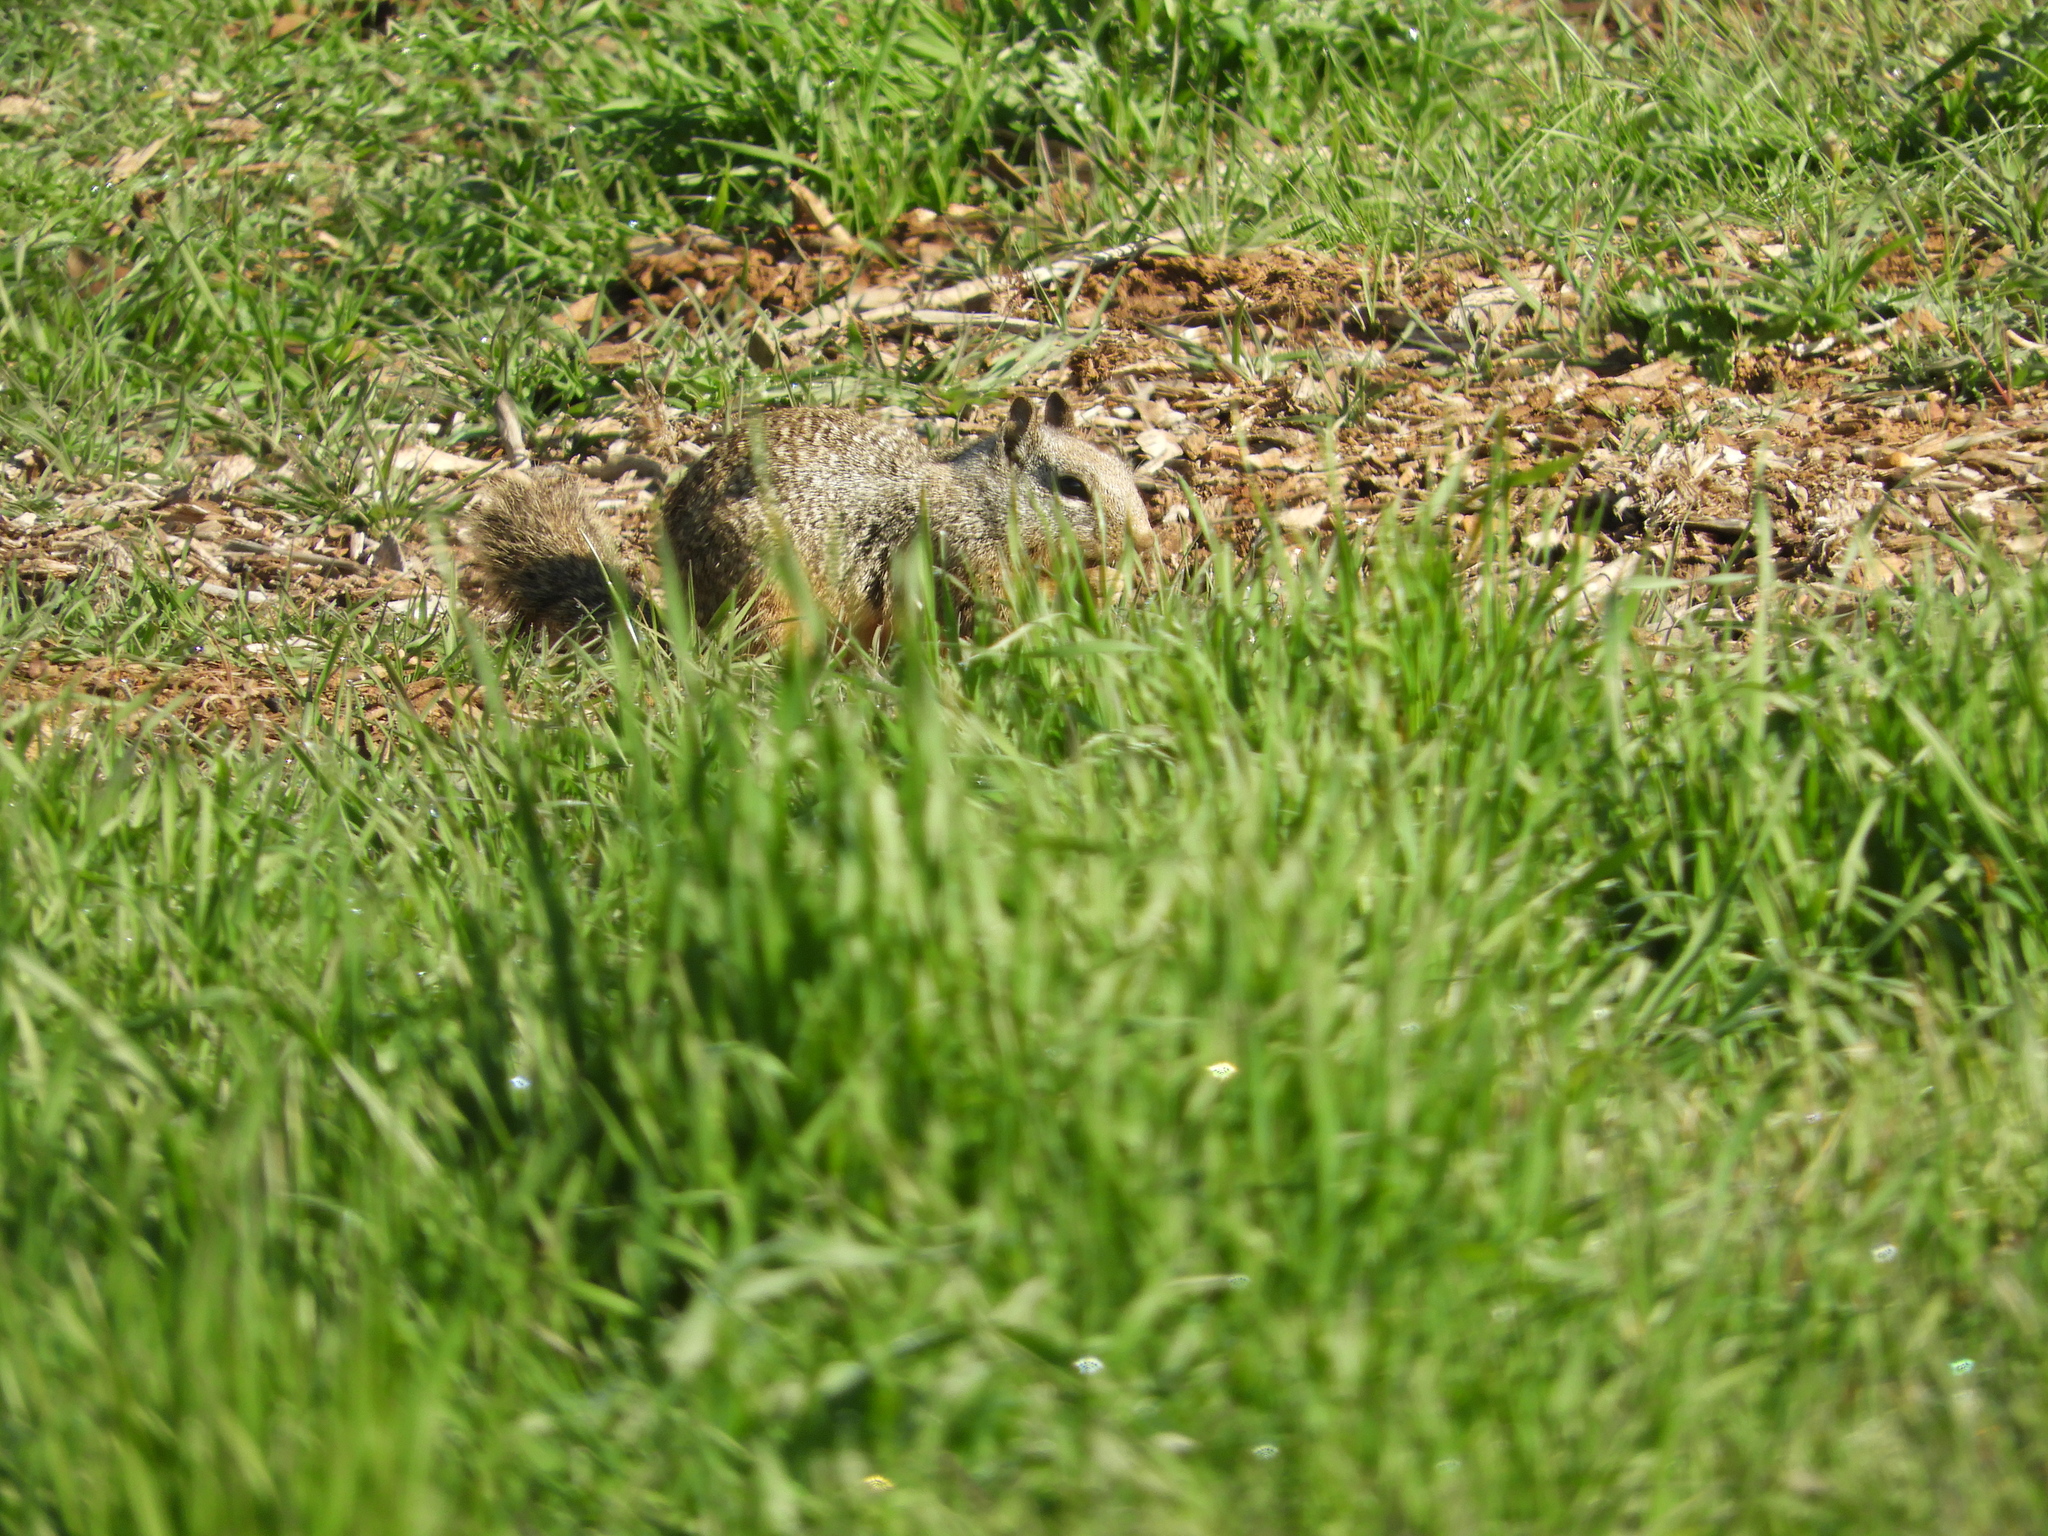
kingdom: Animalia
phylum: Chordata
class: Mammalia
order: Rodentia
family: Sciuridae
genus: Otospermophilus
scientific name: Otospermophilus beecheyi
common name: California ground squirrel
